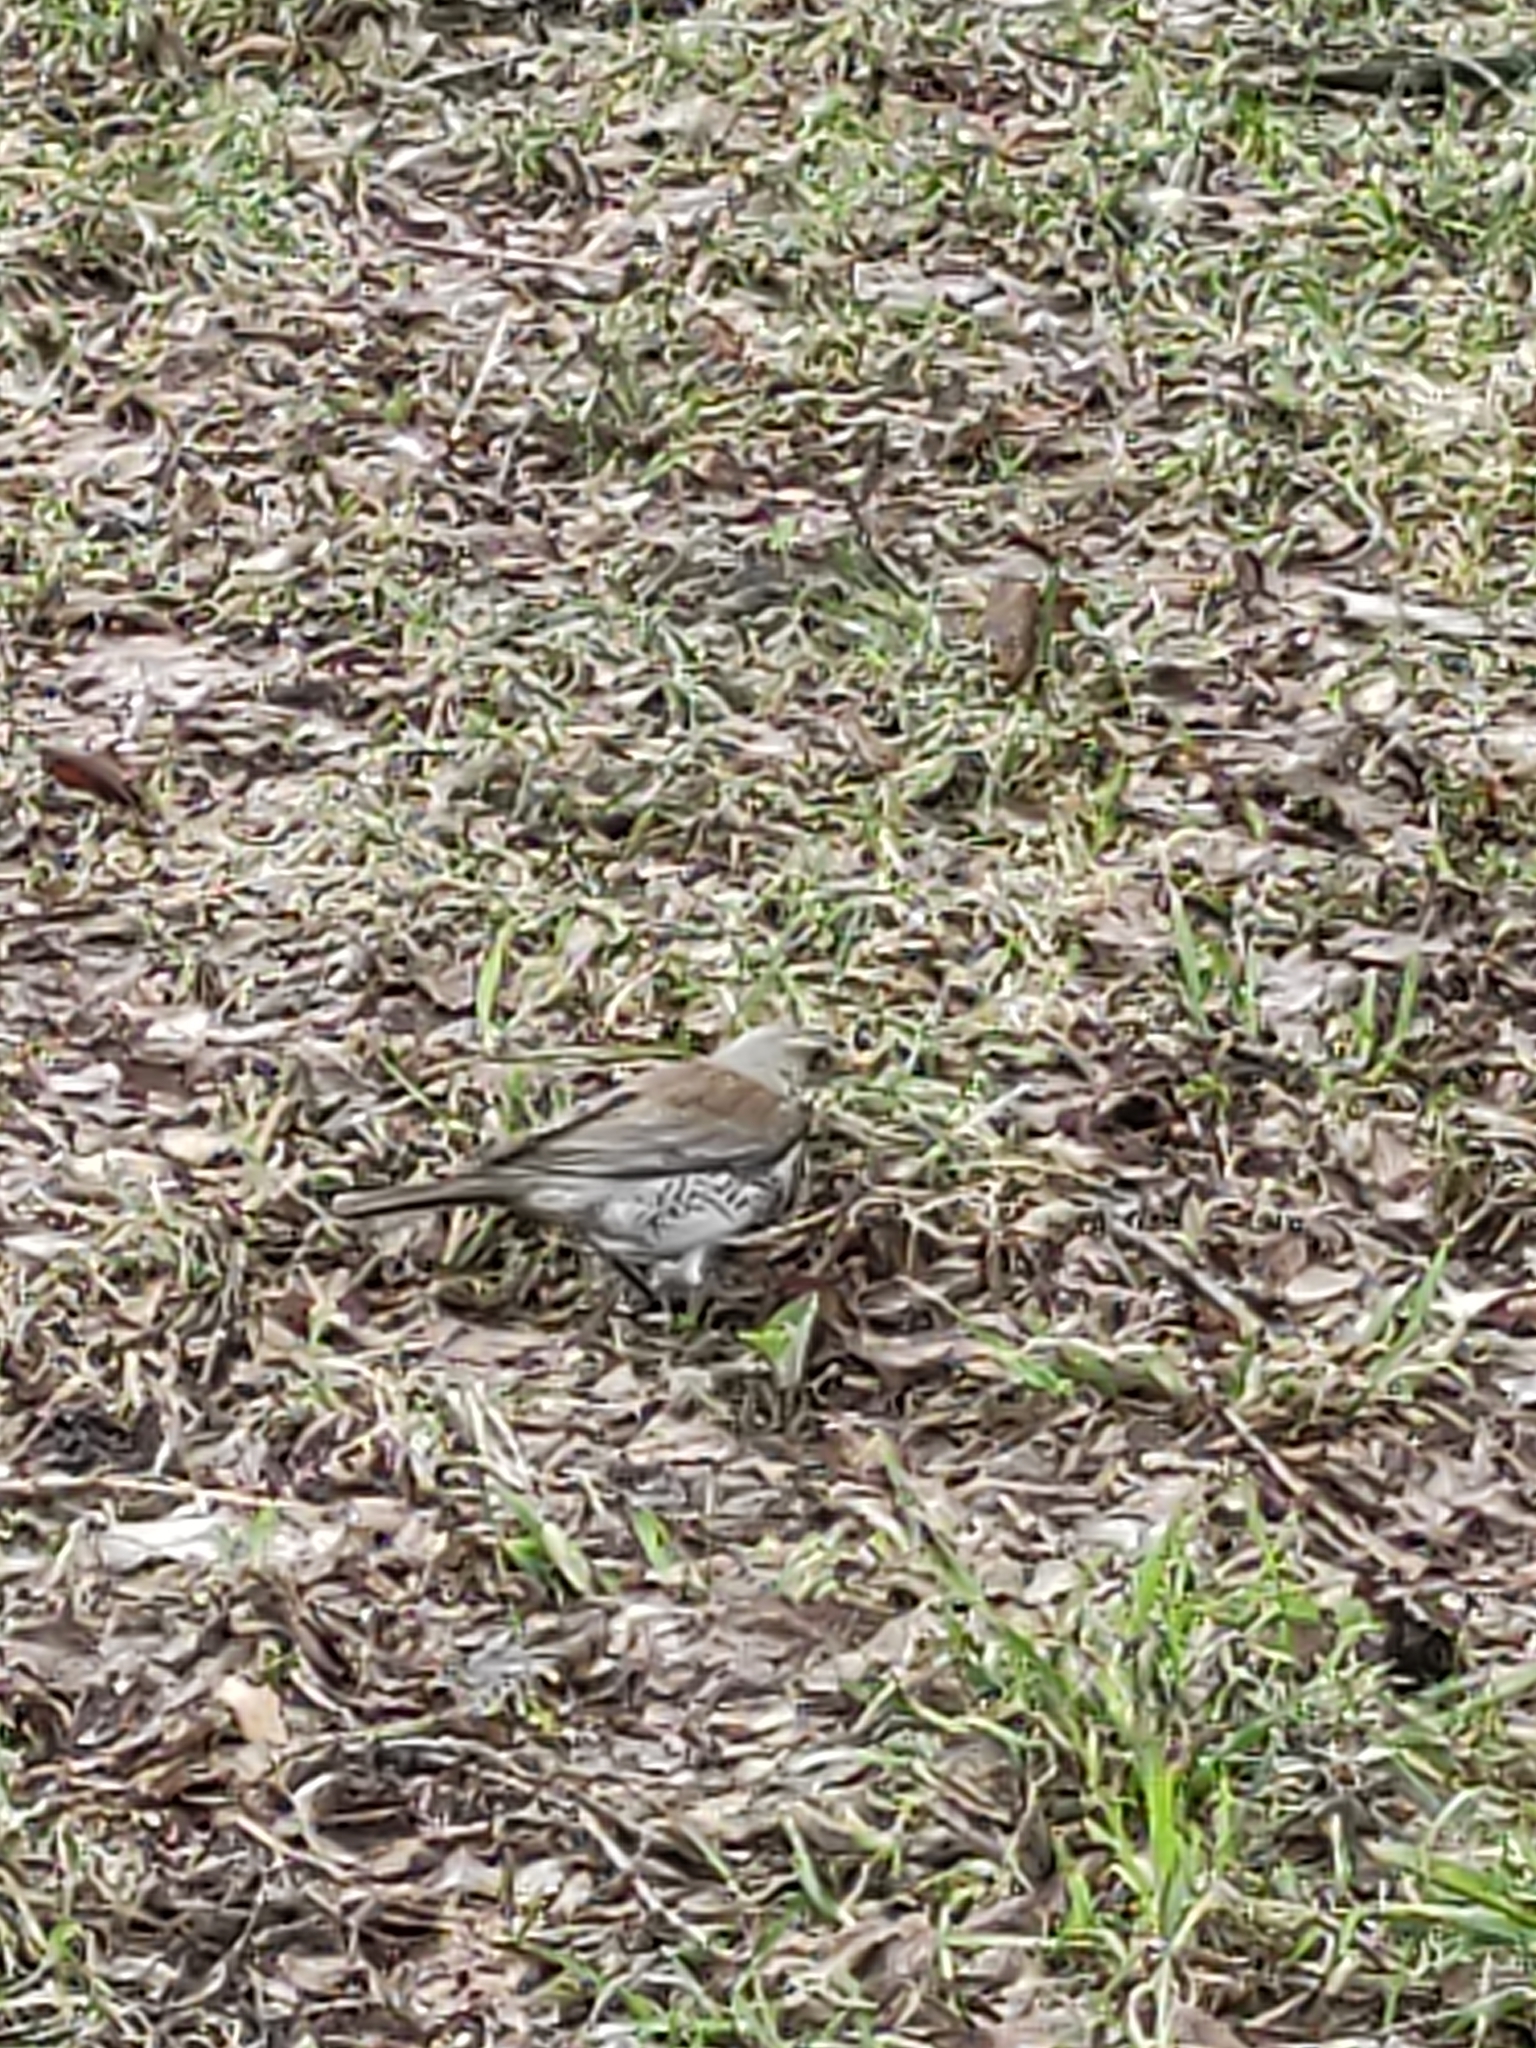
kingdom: Animalia
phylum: Chordata
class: Aves
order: Passeriformes
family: Turdidae
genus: Turdus
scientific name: Turdus pilaris
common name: Fieldfare
